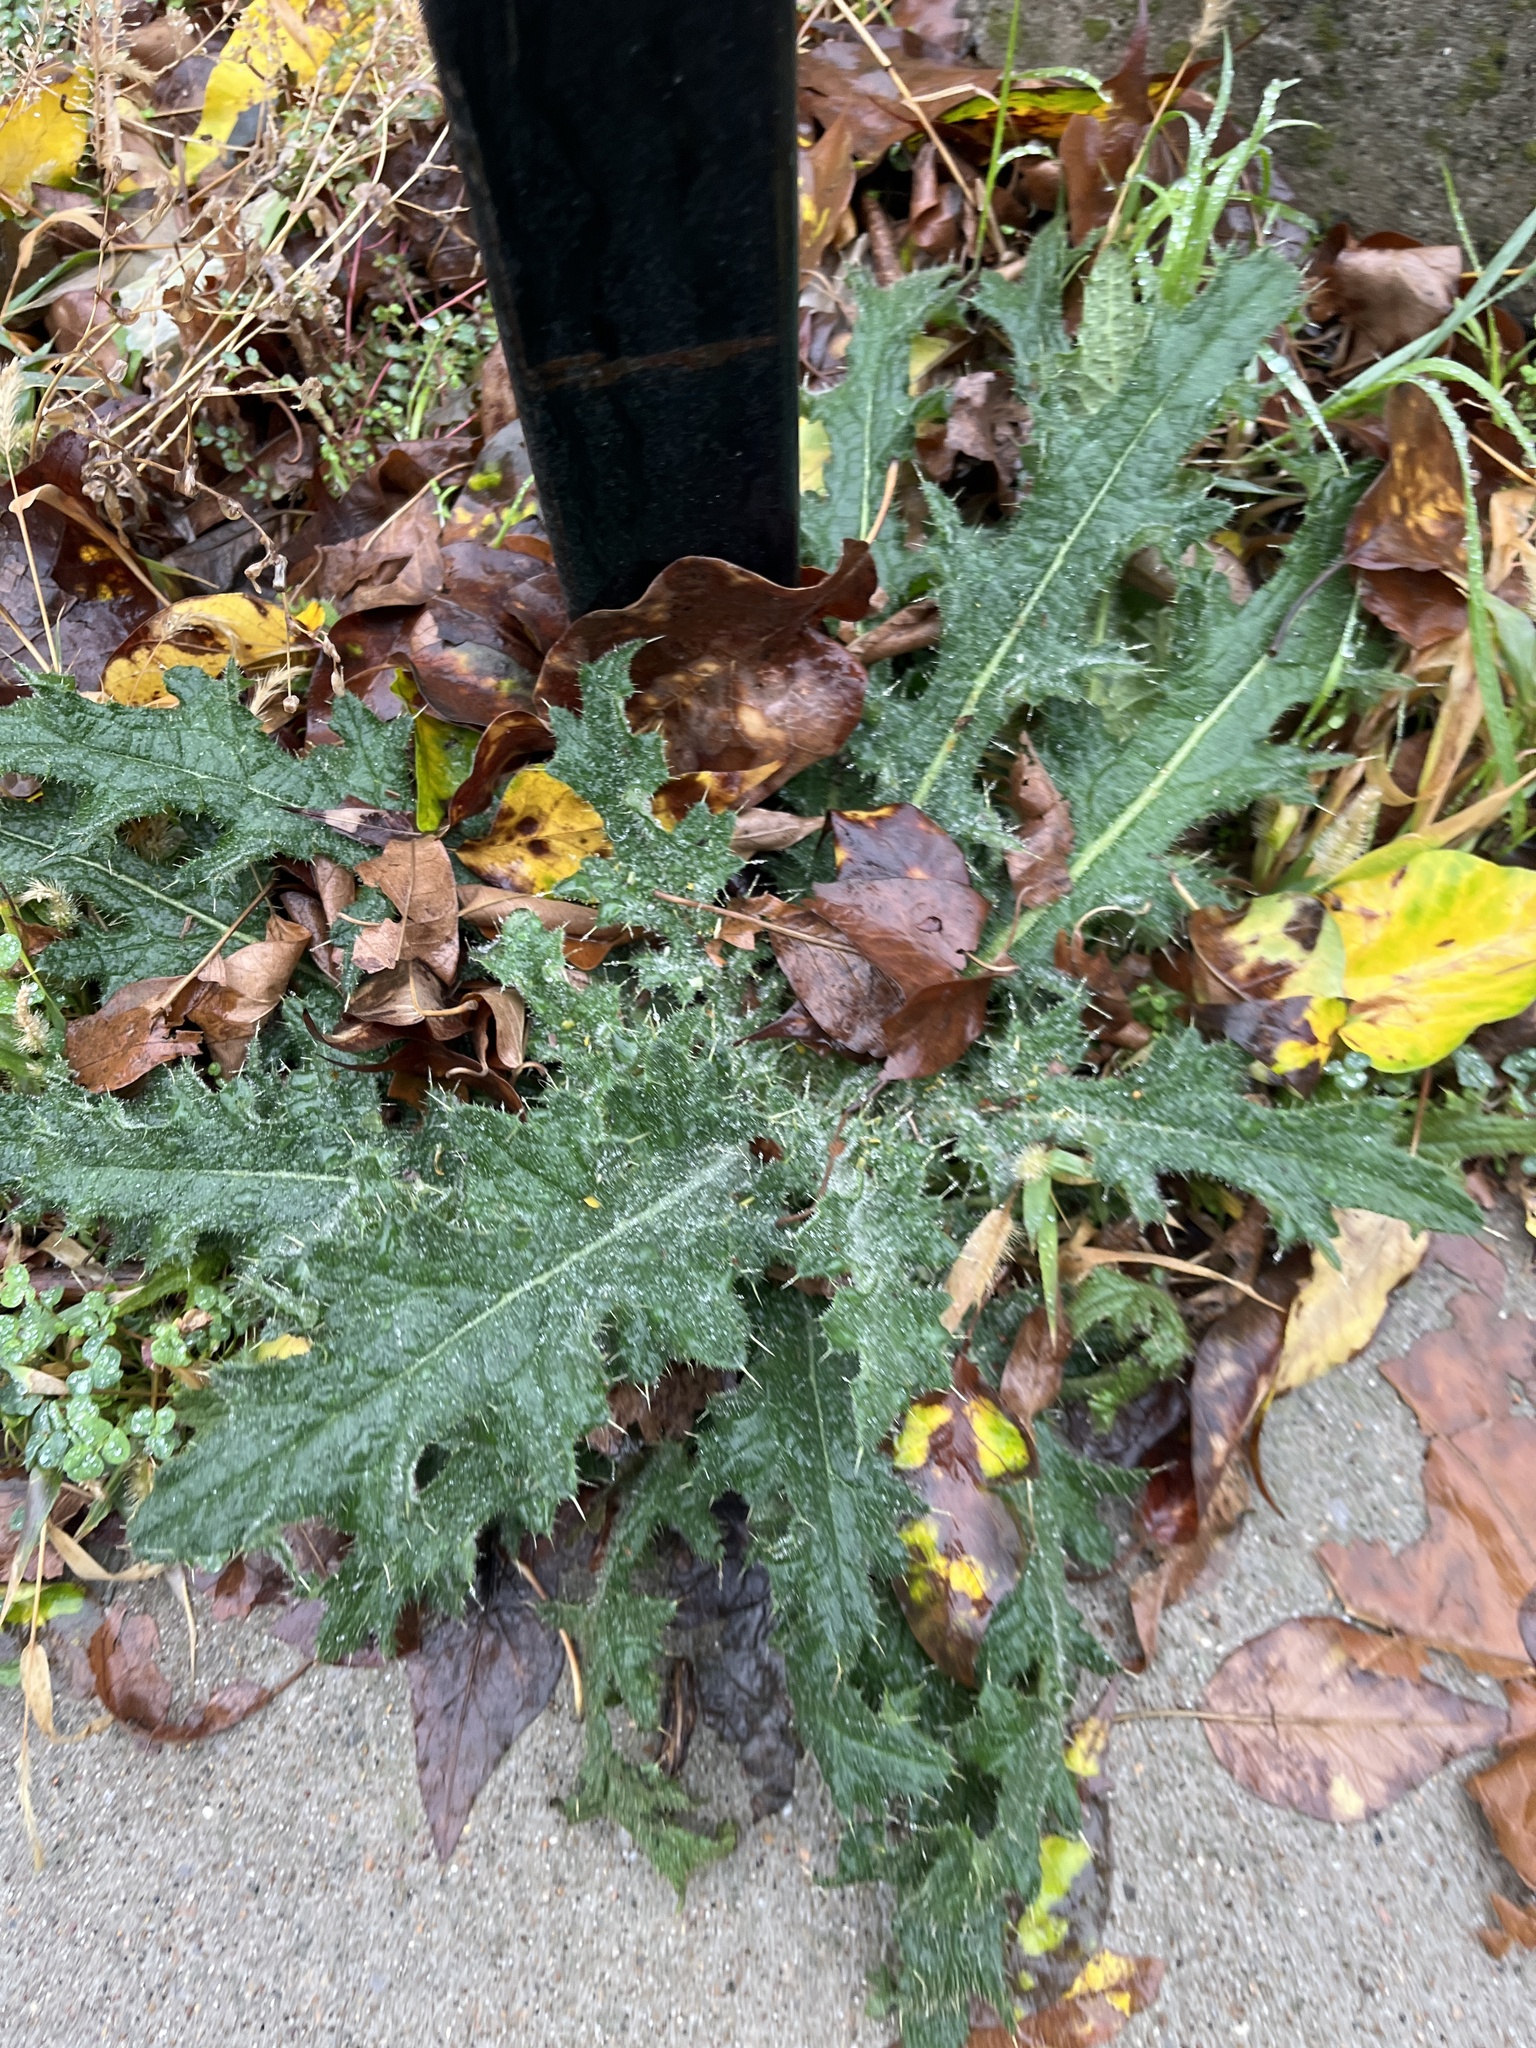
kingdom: Plantae
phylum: Tracheophyta
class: Magnoliopsida
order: Asterales
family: Asteraceae
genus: Cirsium
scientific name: Cirsium vulgare
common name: Bull thistle
